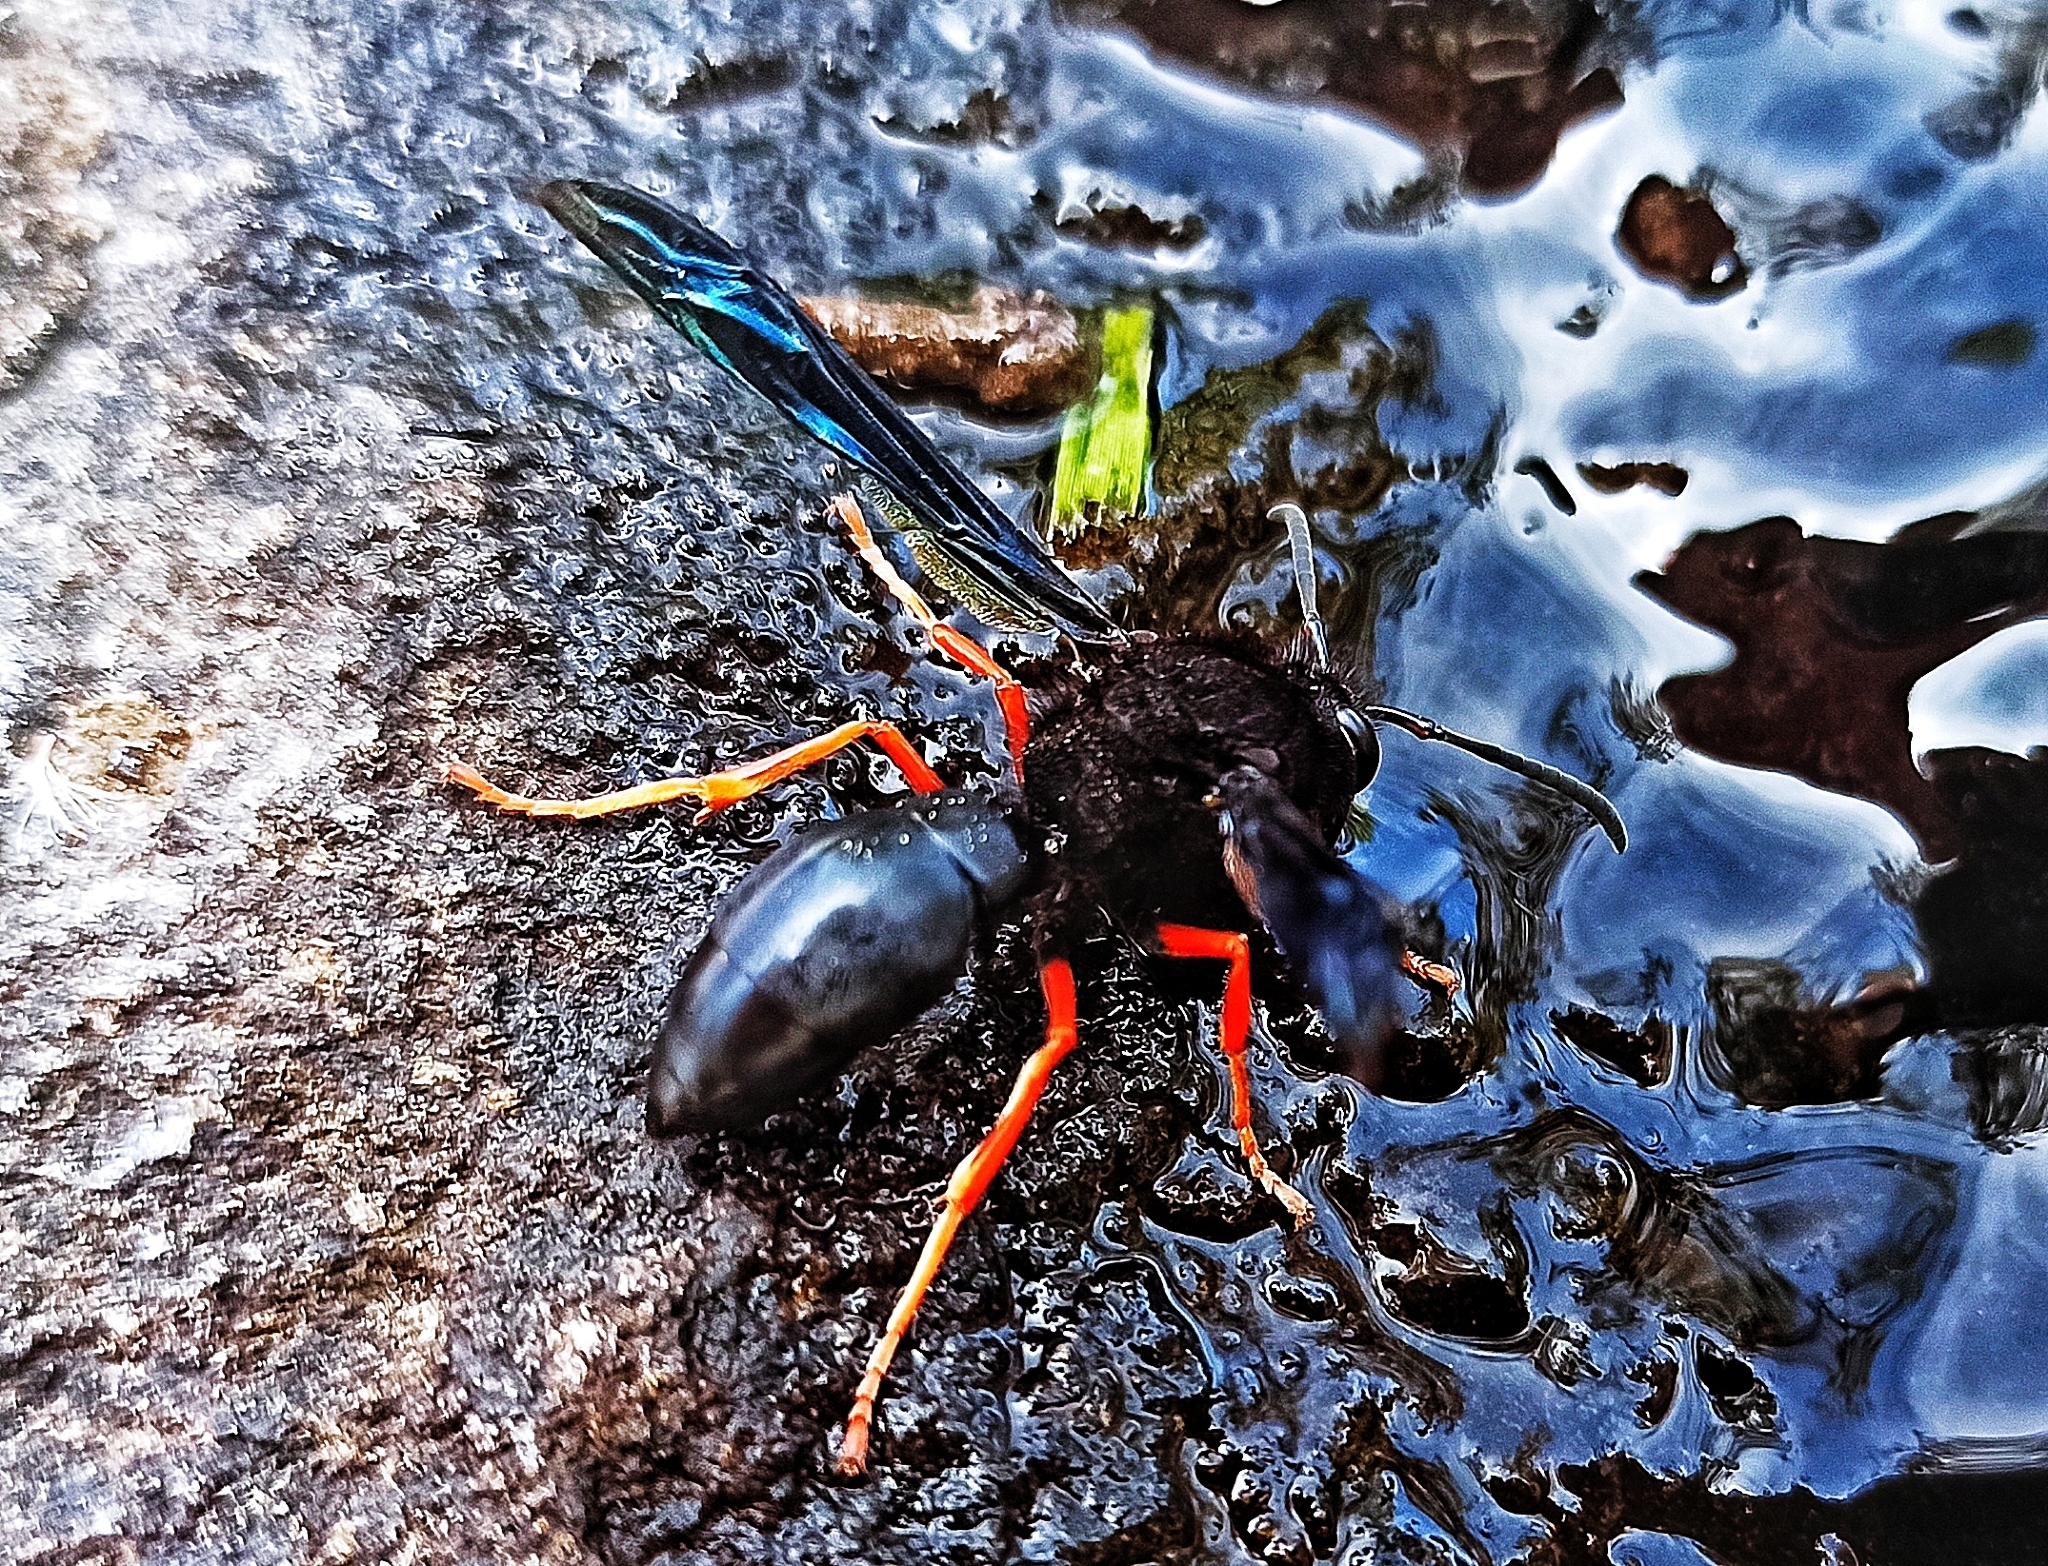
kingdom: Animalia
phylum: Arthropoda
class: Insecta
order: Hymenoptera
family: Vespidae
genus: Hypodynerus
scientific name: Hypodynerus andeus
